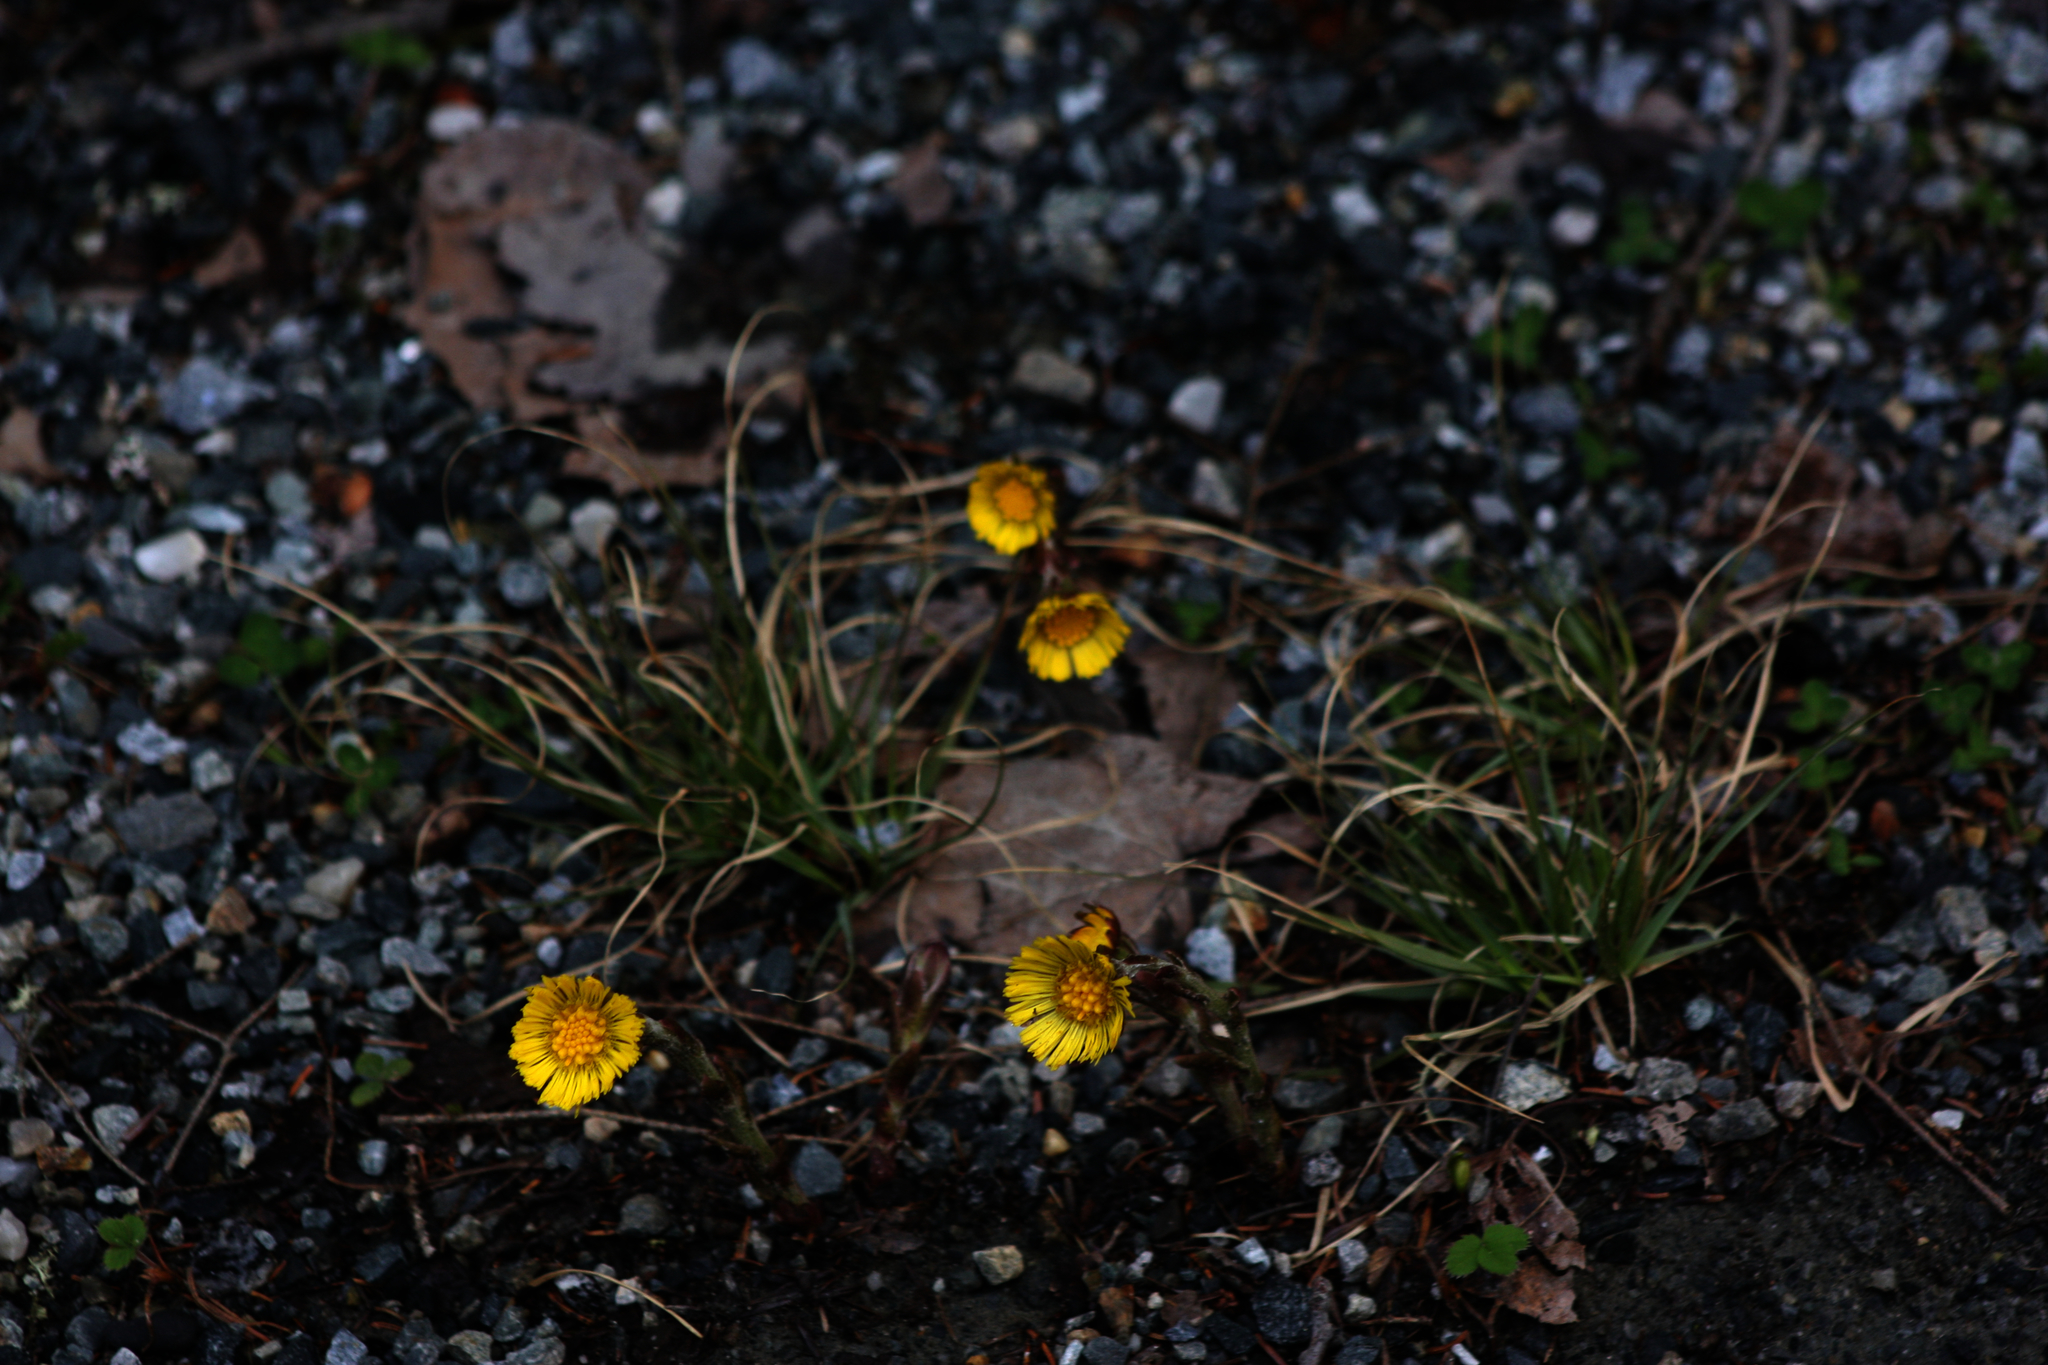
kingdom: Plantae
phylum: Tracheophyta
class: Magnoliopsida
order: Asterales
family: Asteraceae
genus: Tussilago
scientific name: Tussilago farfara
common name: Coltsfoot
